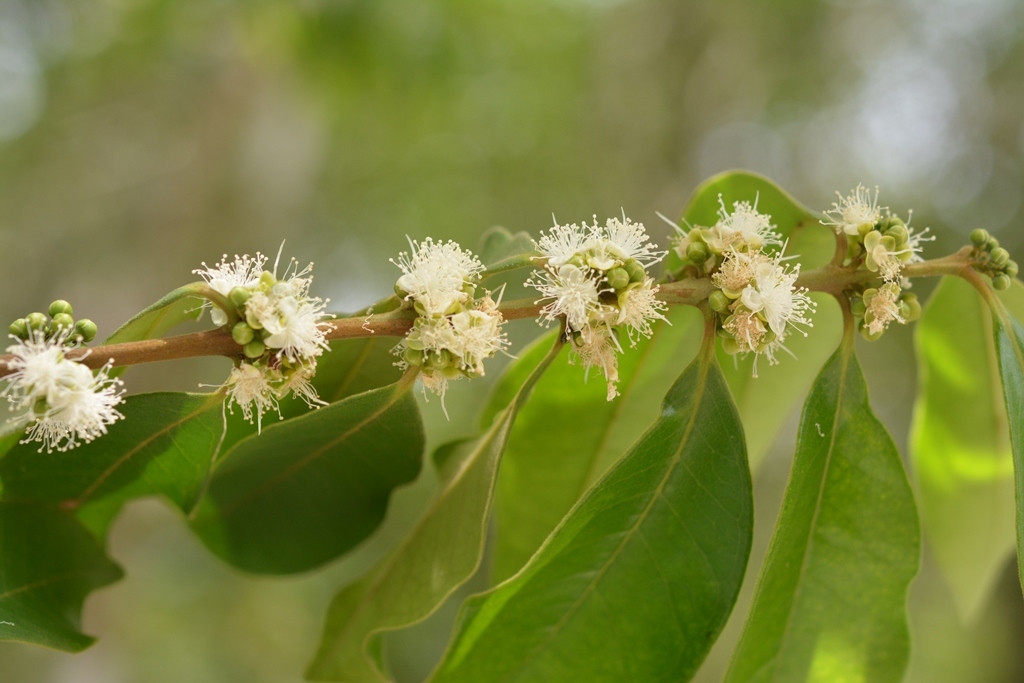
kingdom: Plantae
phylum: Tracheophyta
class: Magnoliopsida
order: Myrtales
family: Myrtaceae
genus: Eugenia
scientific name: Eugenia capuli
